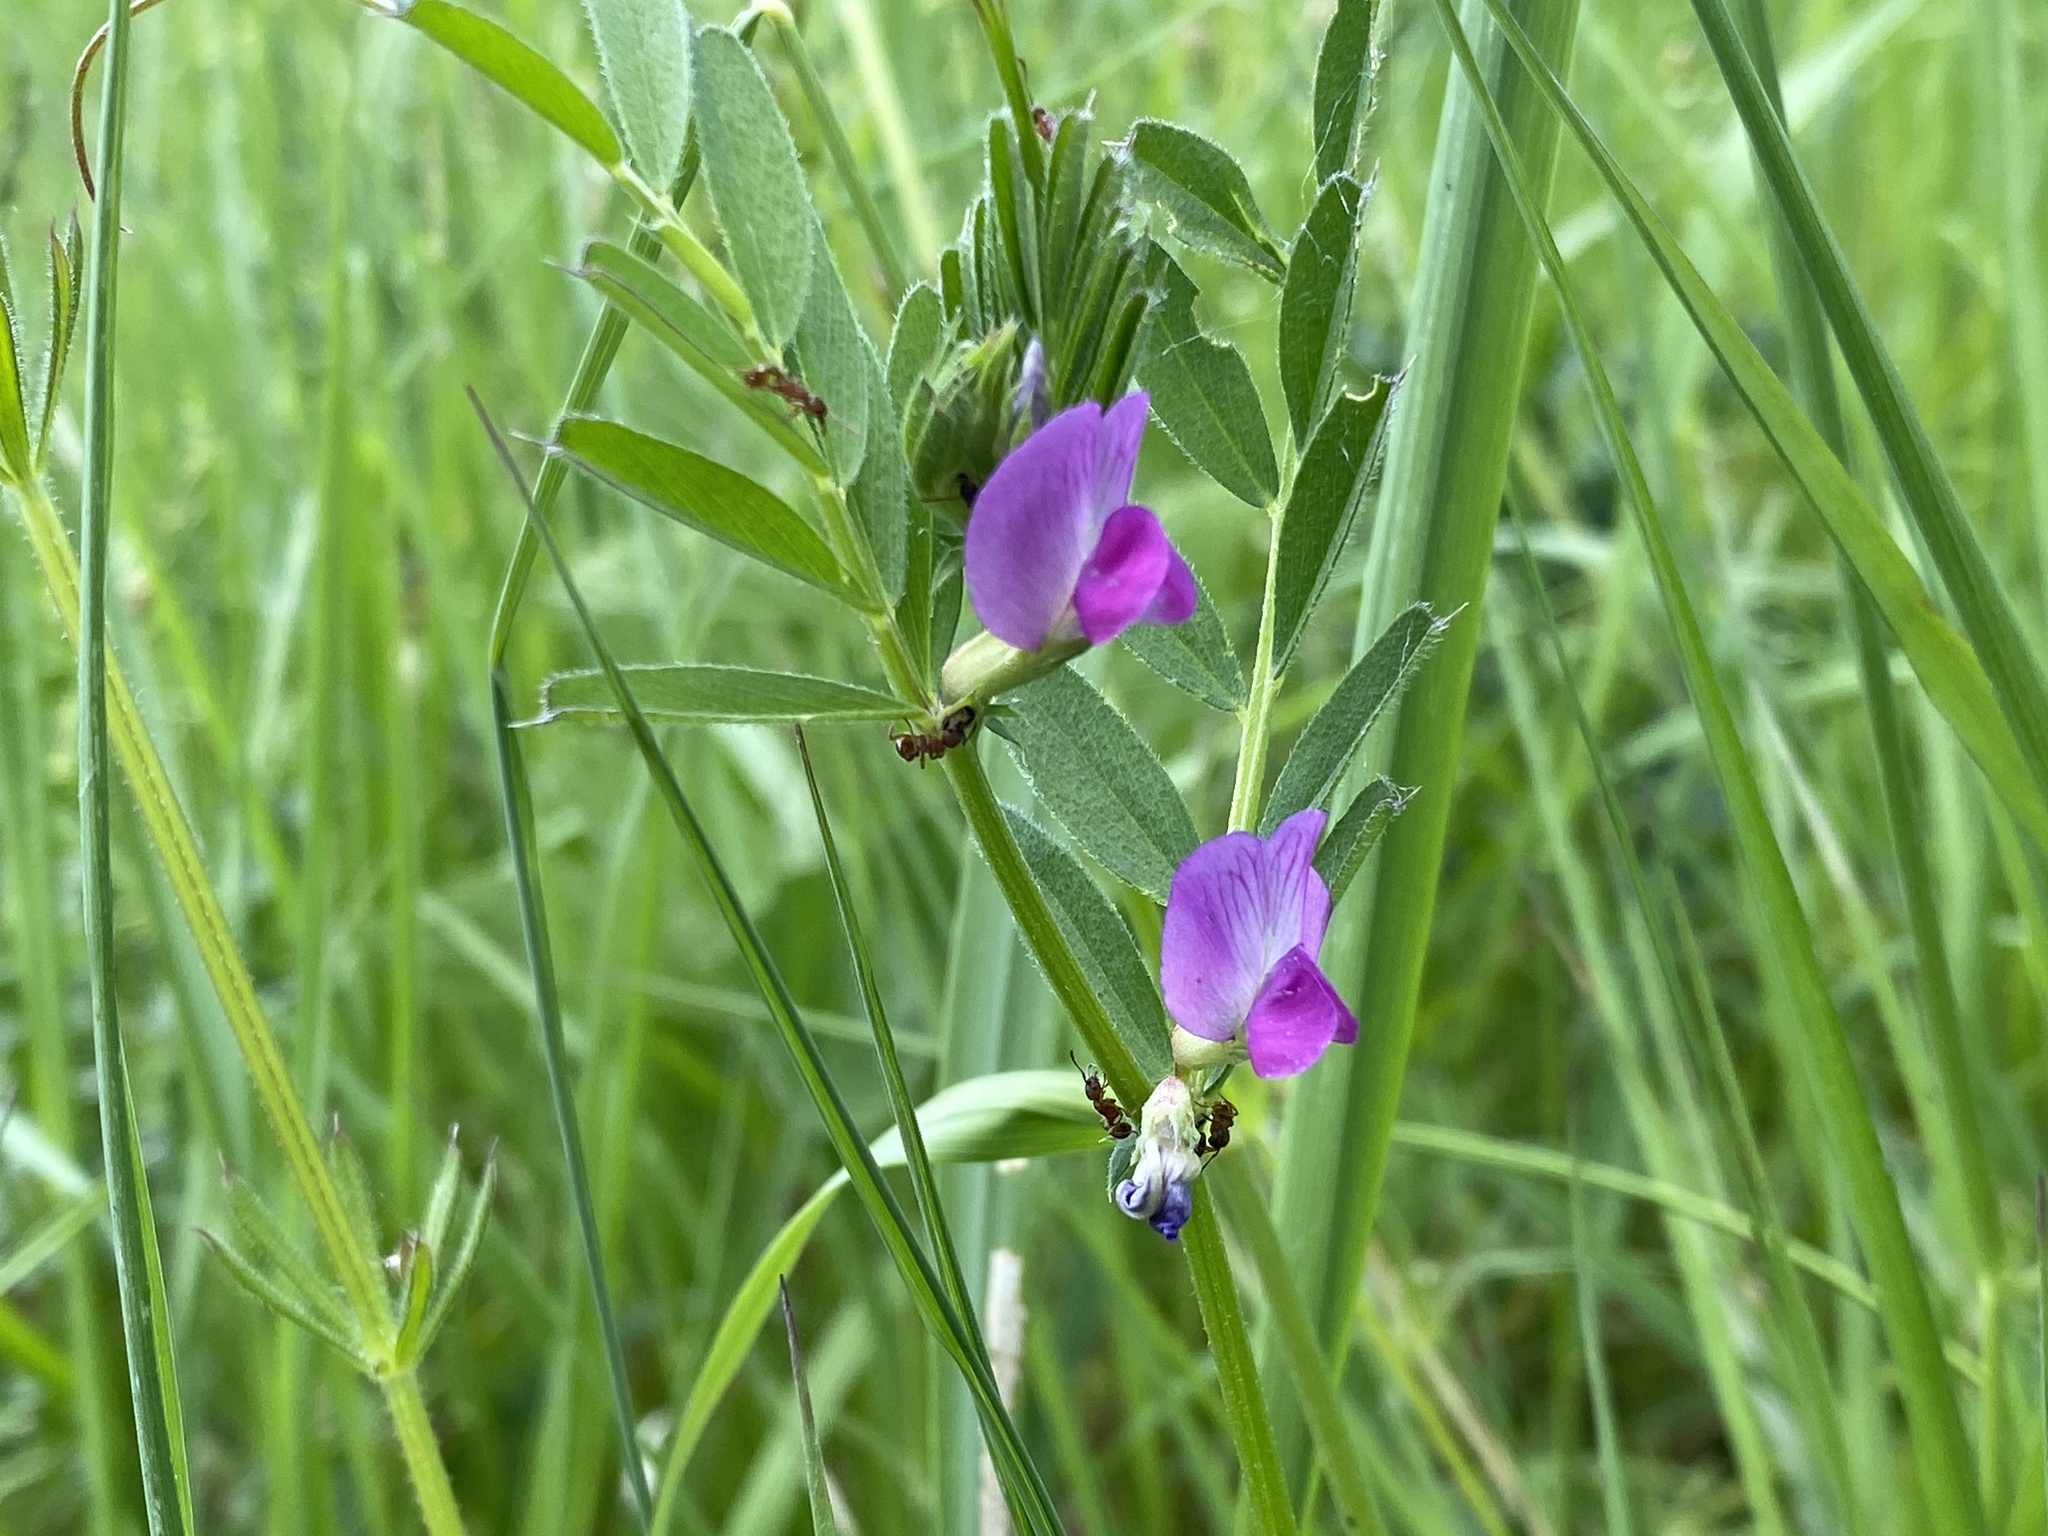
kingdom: Plantae
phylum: Tracheophyta
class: Magnoliopsida
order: Fabales
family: Fabaceae
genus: Vicia
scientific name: Vicia sativa
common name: Garden vetch
